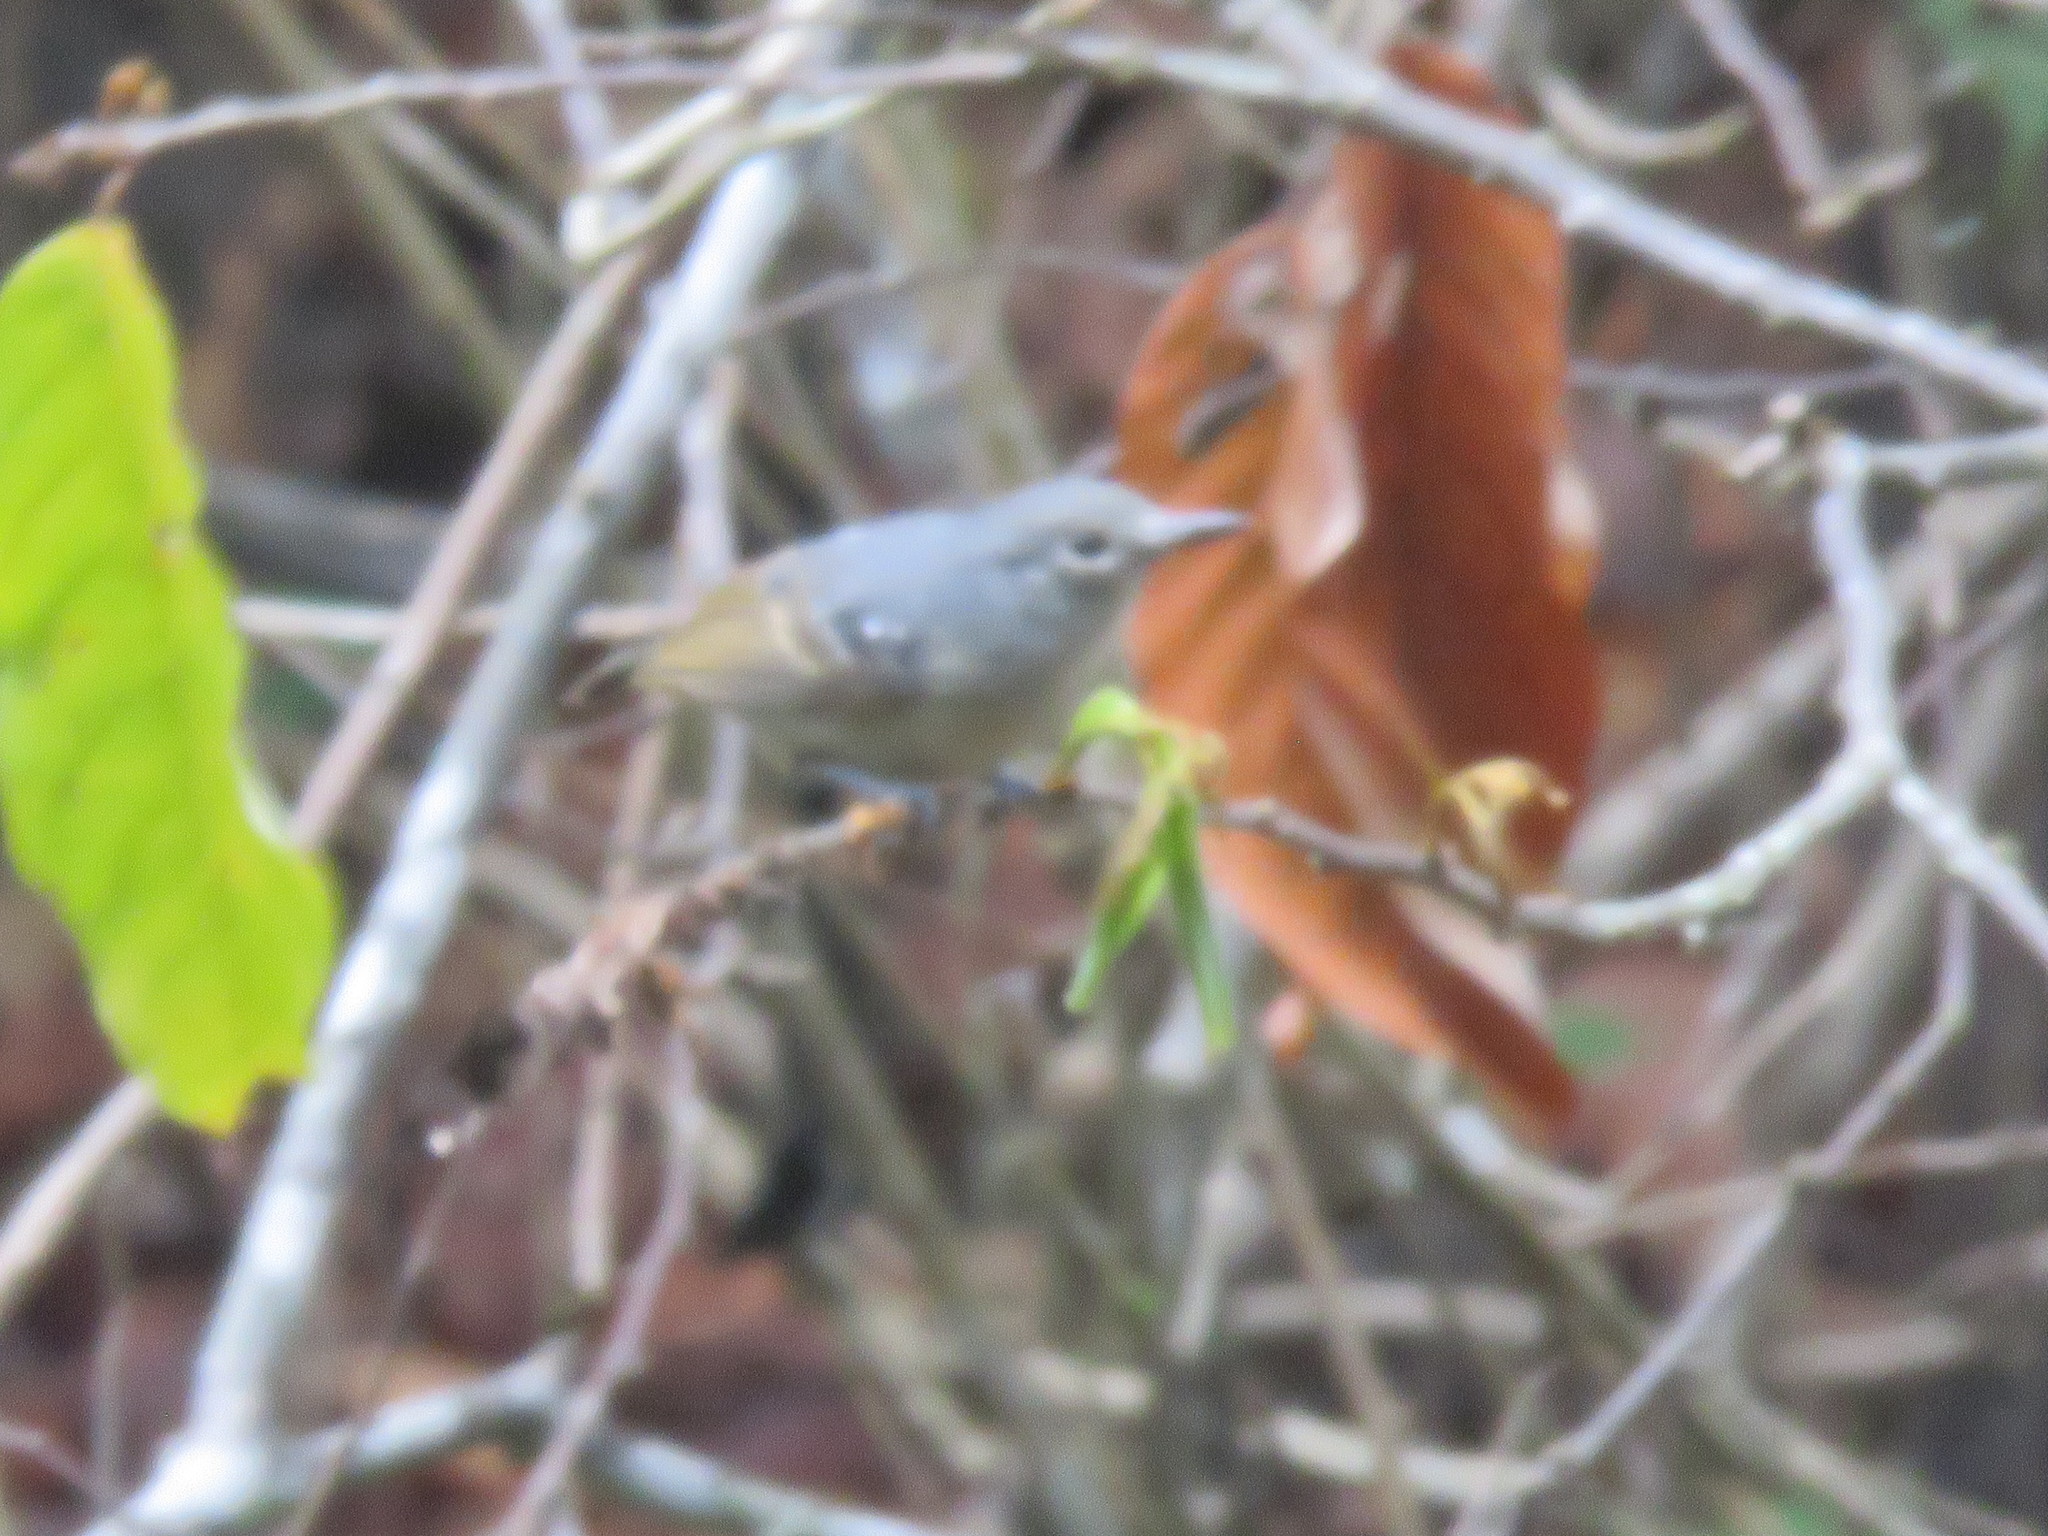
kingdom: Animalia
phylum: Chordata
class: Aves
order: Passeriformes
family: Thamnophilidae
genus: Myrmotherula
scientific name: Myrmotherula assimilis
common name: Leaden antwren
